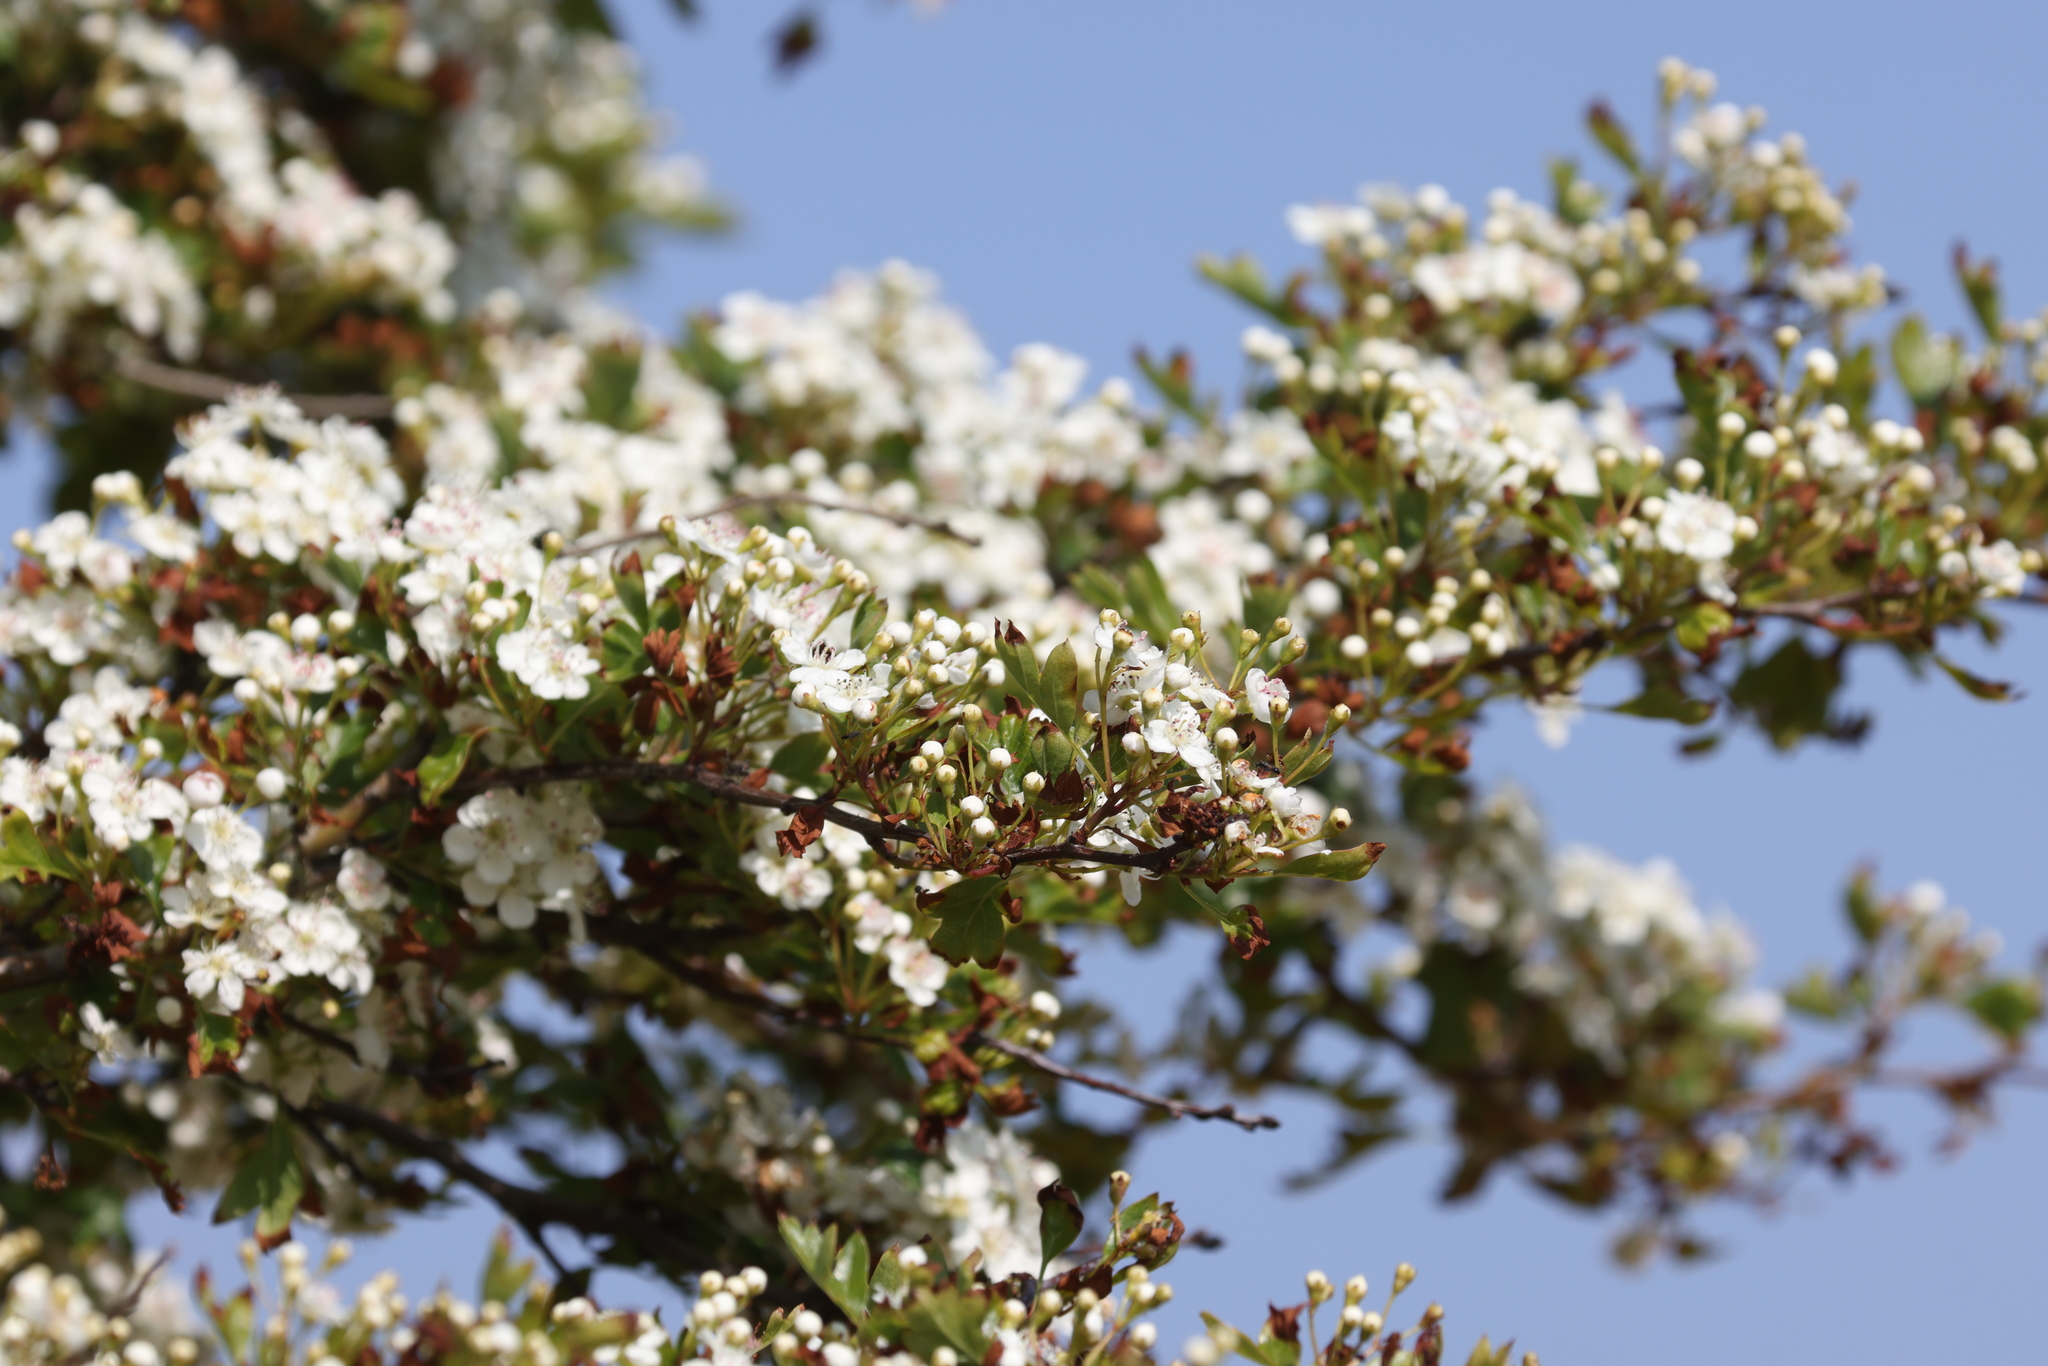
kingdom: Plantae
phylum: Tracheophyta
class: Magnoliopsida
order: Rosales
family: Rosaceae
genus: Crataegus
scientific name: Crataegus monogyna
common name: Hawthorn
